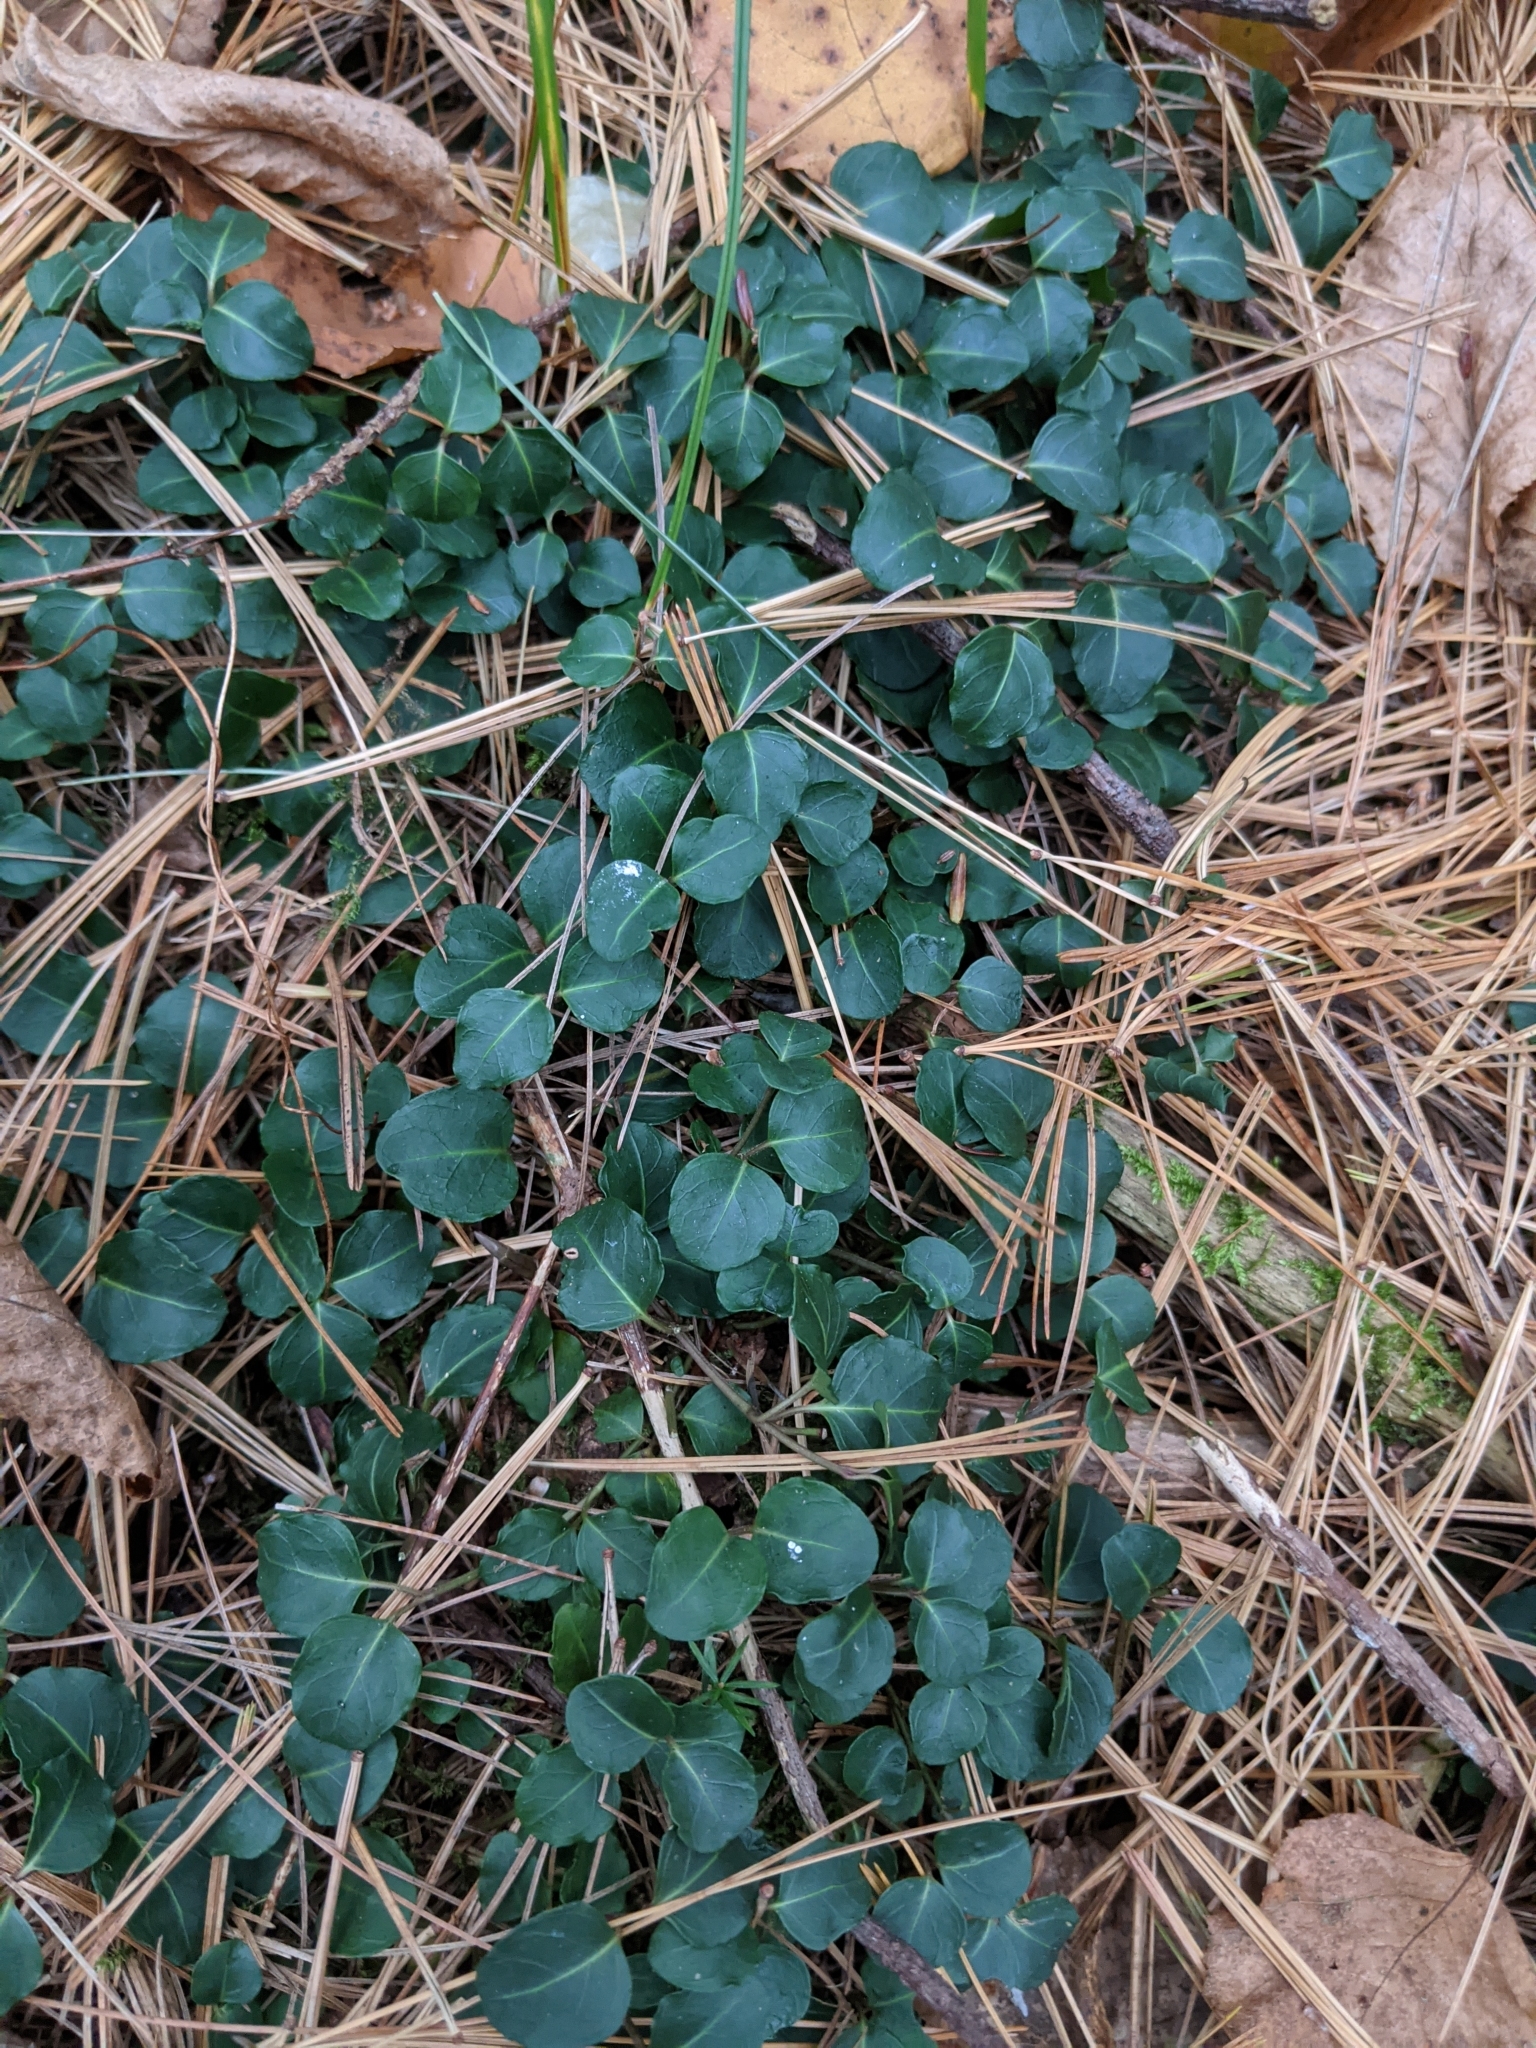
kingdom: Plantae
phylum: Tracheophyta
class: Magnoliopsida
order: Gentianales
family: Rubiaceae
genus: Mitchella
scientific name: Mitchella repens
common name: Partridge-berry
